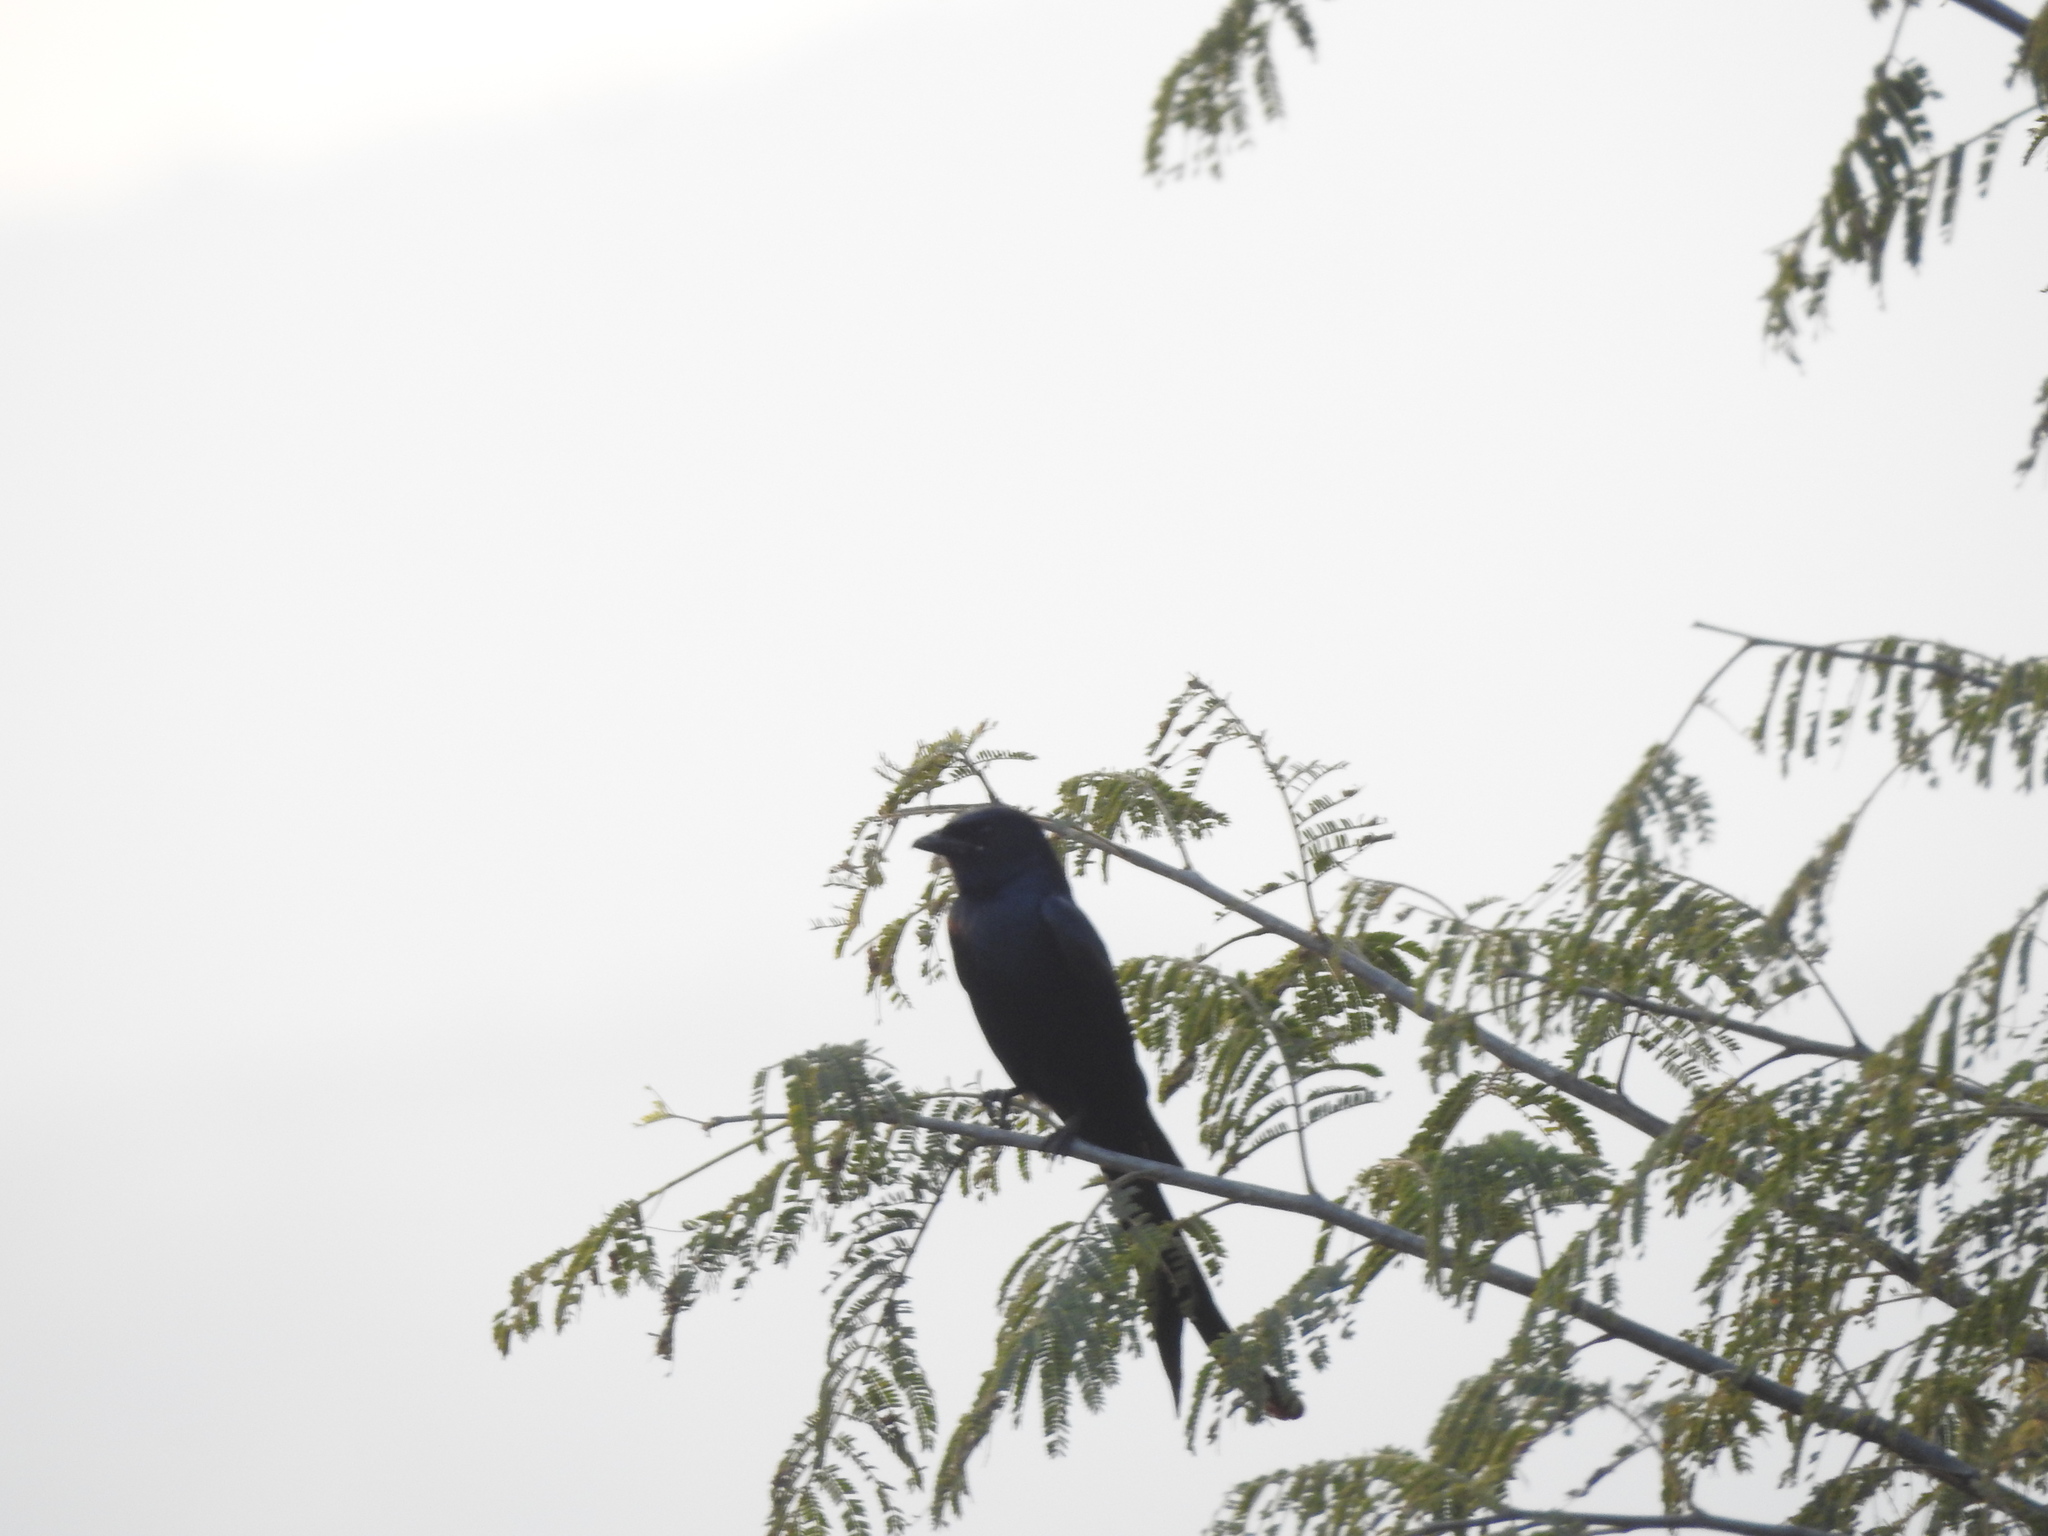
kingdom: Animalia
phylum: Chordata
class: Aves
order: Passeriformes
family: Dicruridae
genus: Dicrurus
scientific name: Dicrurus macrocercus
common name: Black drongo
